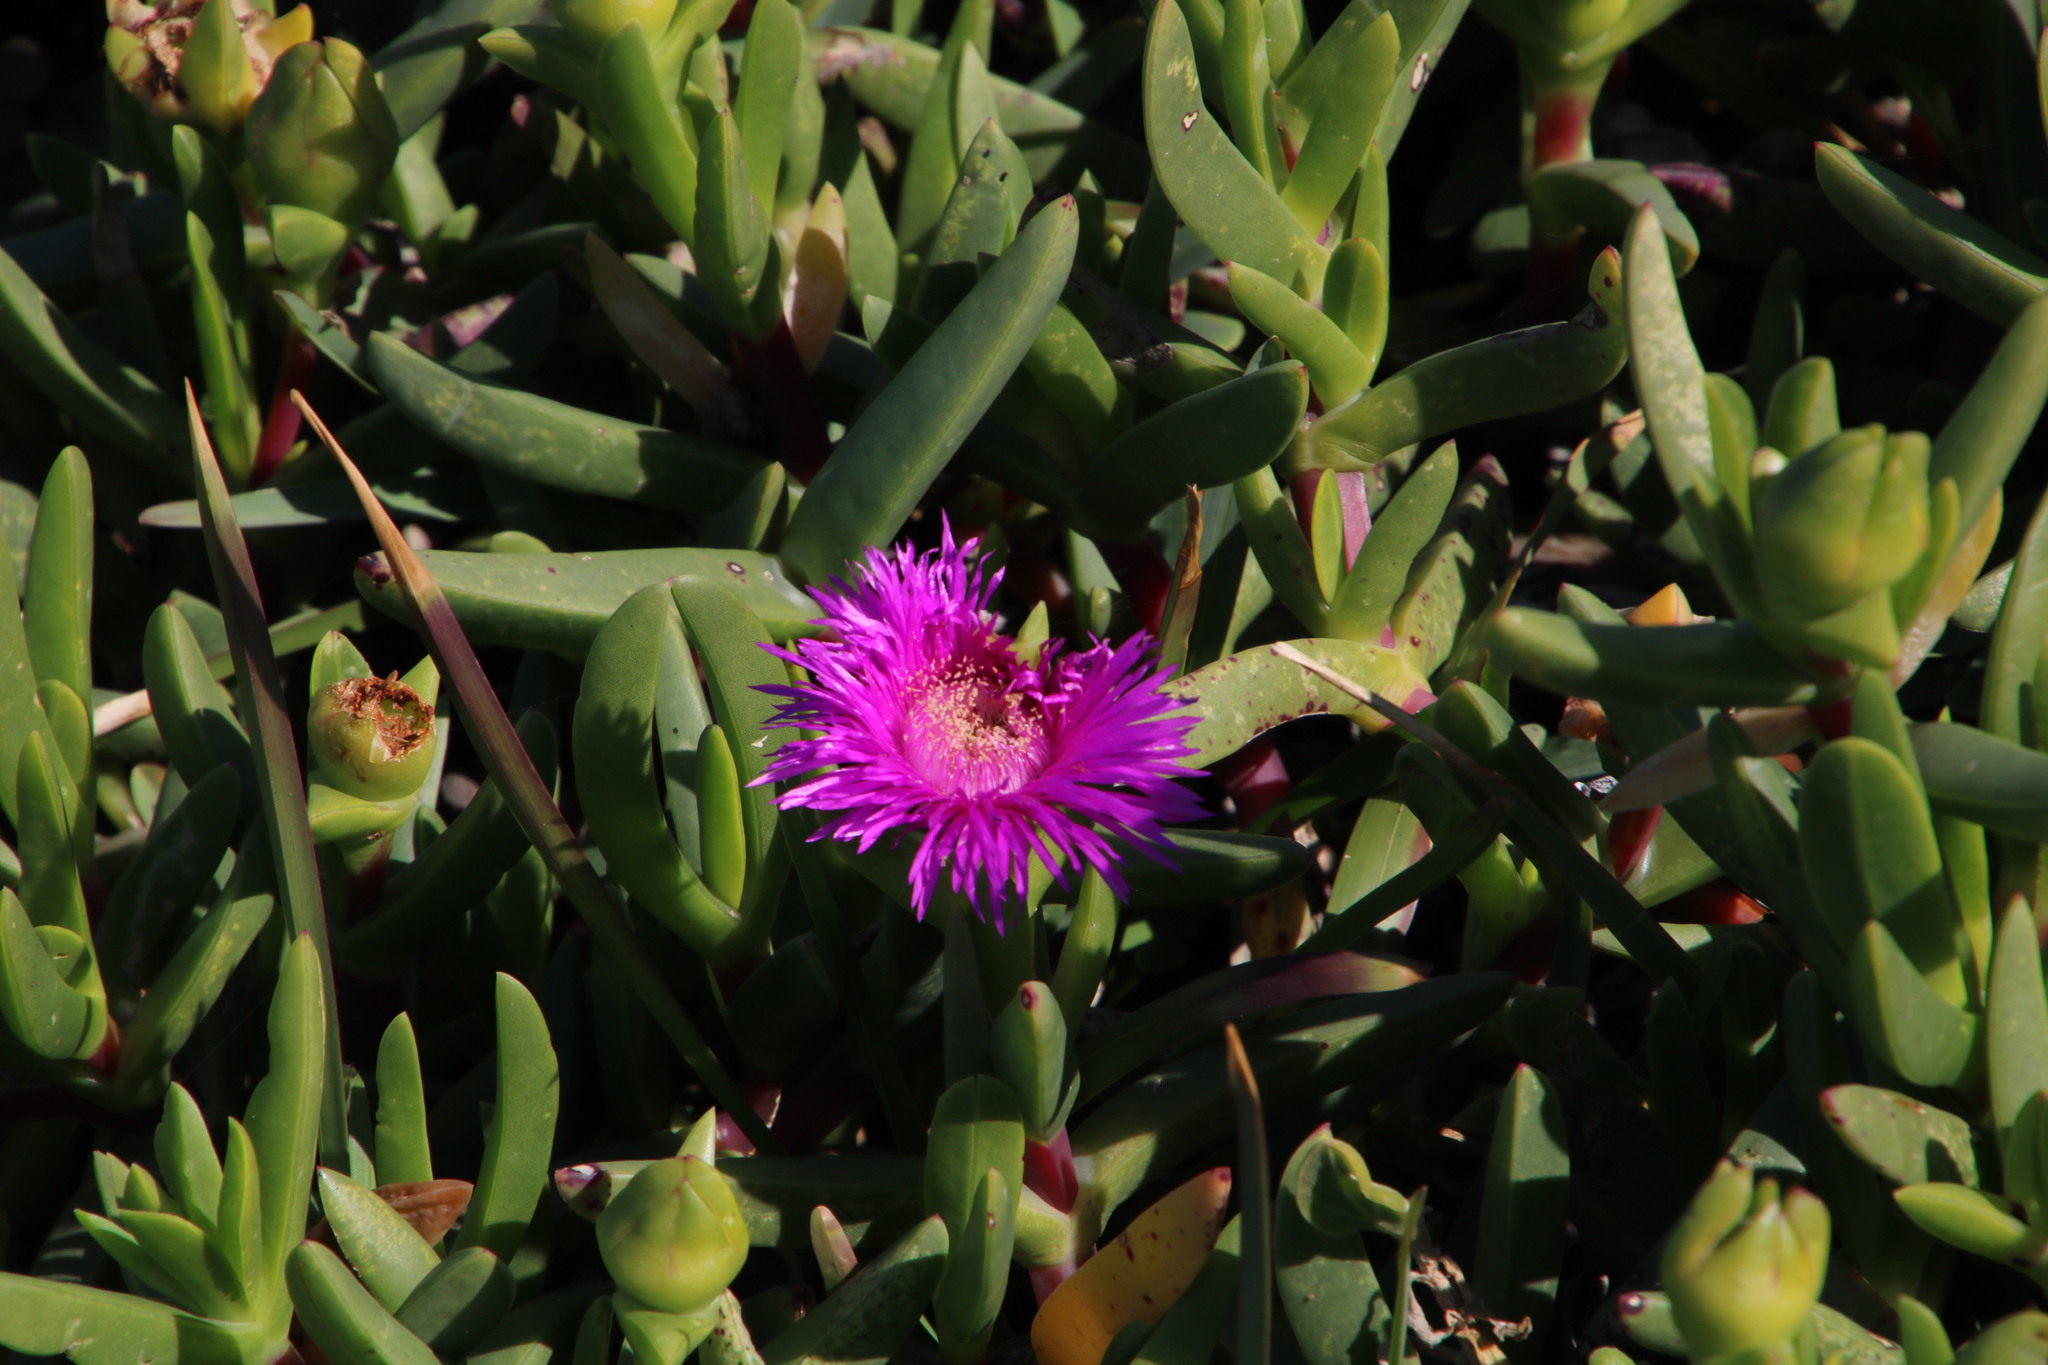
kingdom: Plantae
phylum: Tracheophyta
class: Magnoliopsida
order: Caryophyllales
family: Aizoaceae
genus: Carpobrotus
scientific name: Carpobrotus deliciosus
